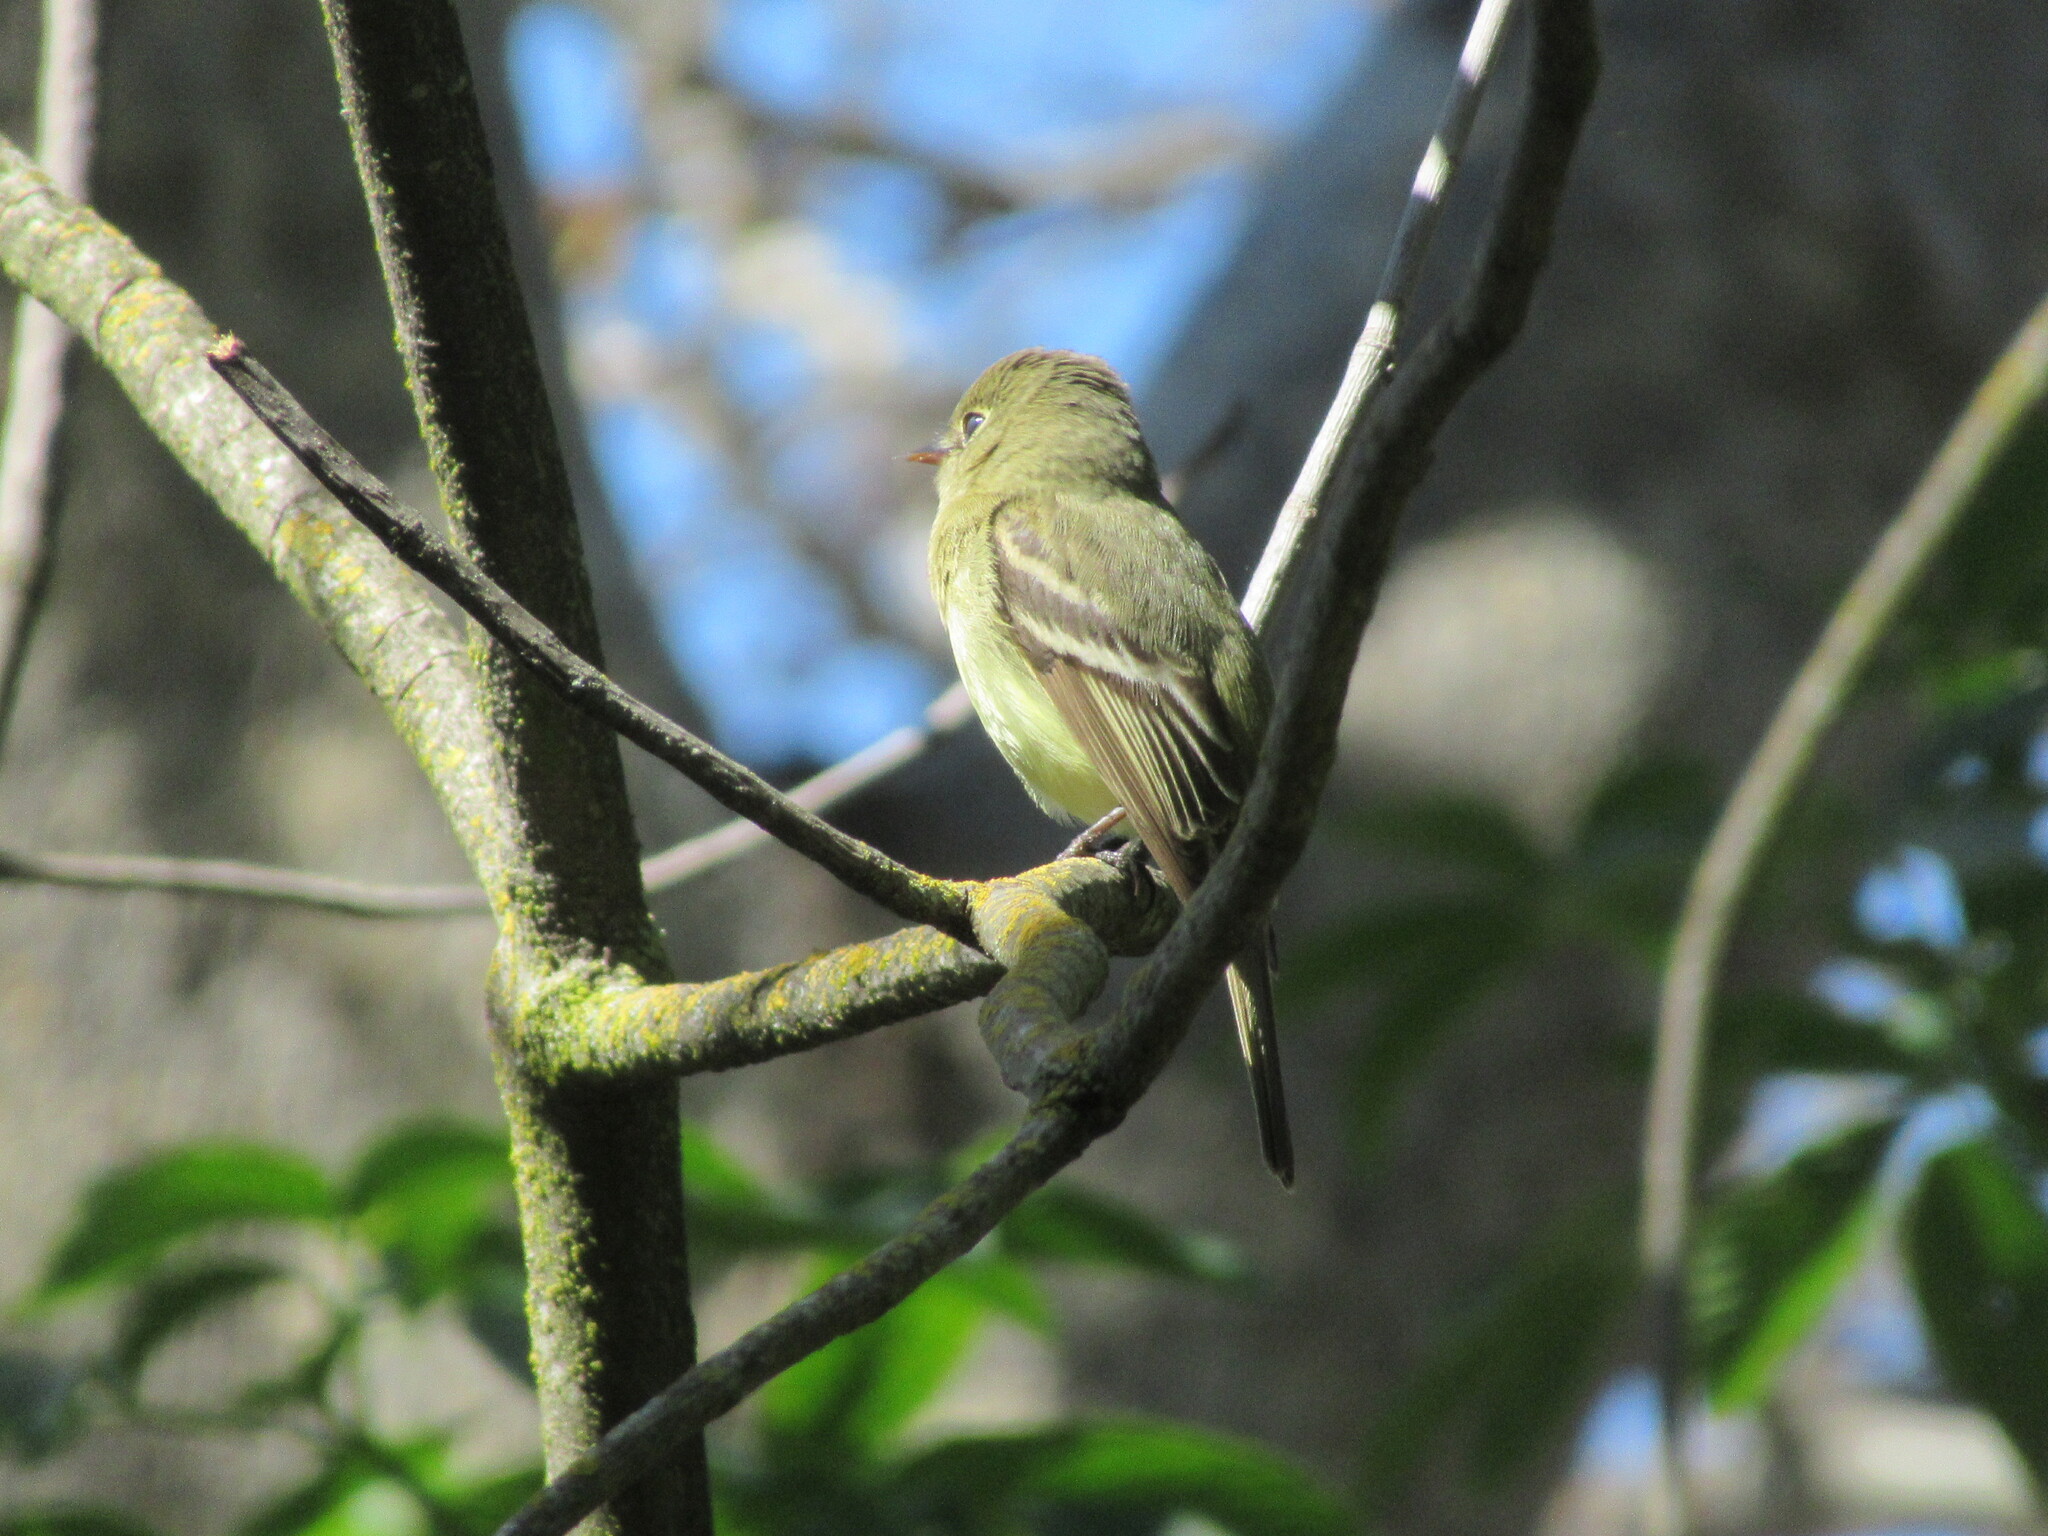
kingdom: Animalia
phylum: Chordata
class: Aves
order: Passeriformes
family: Tyrannidae
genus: Empidonax
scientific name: Empidonax difficilis
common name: Pacific-slope flycatcher
